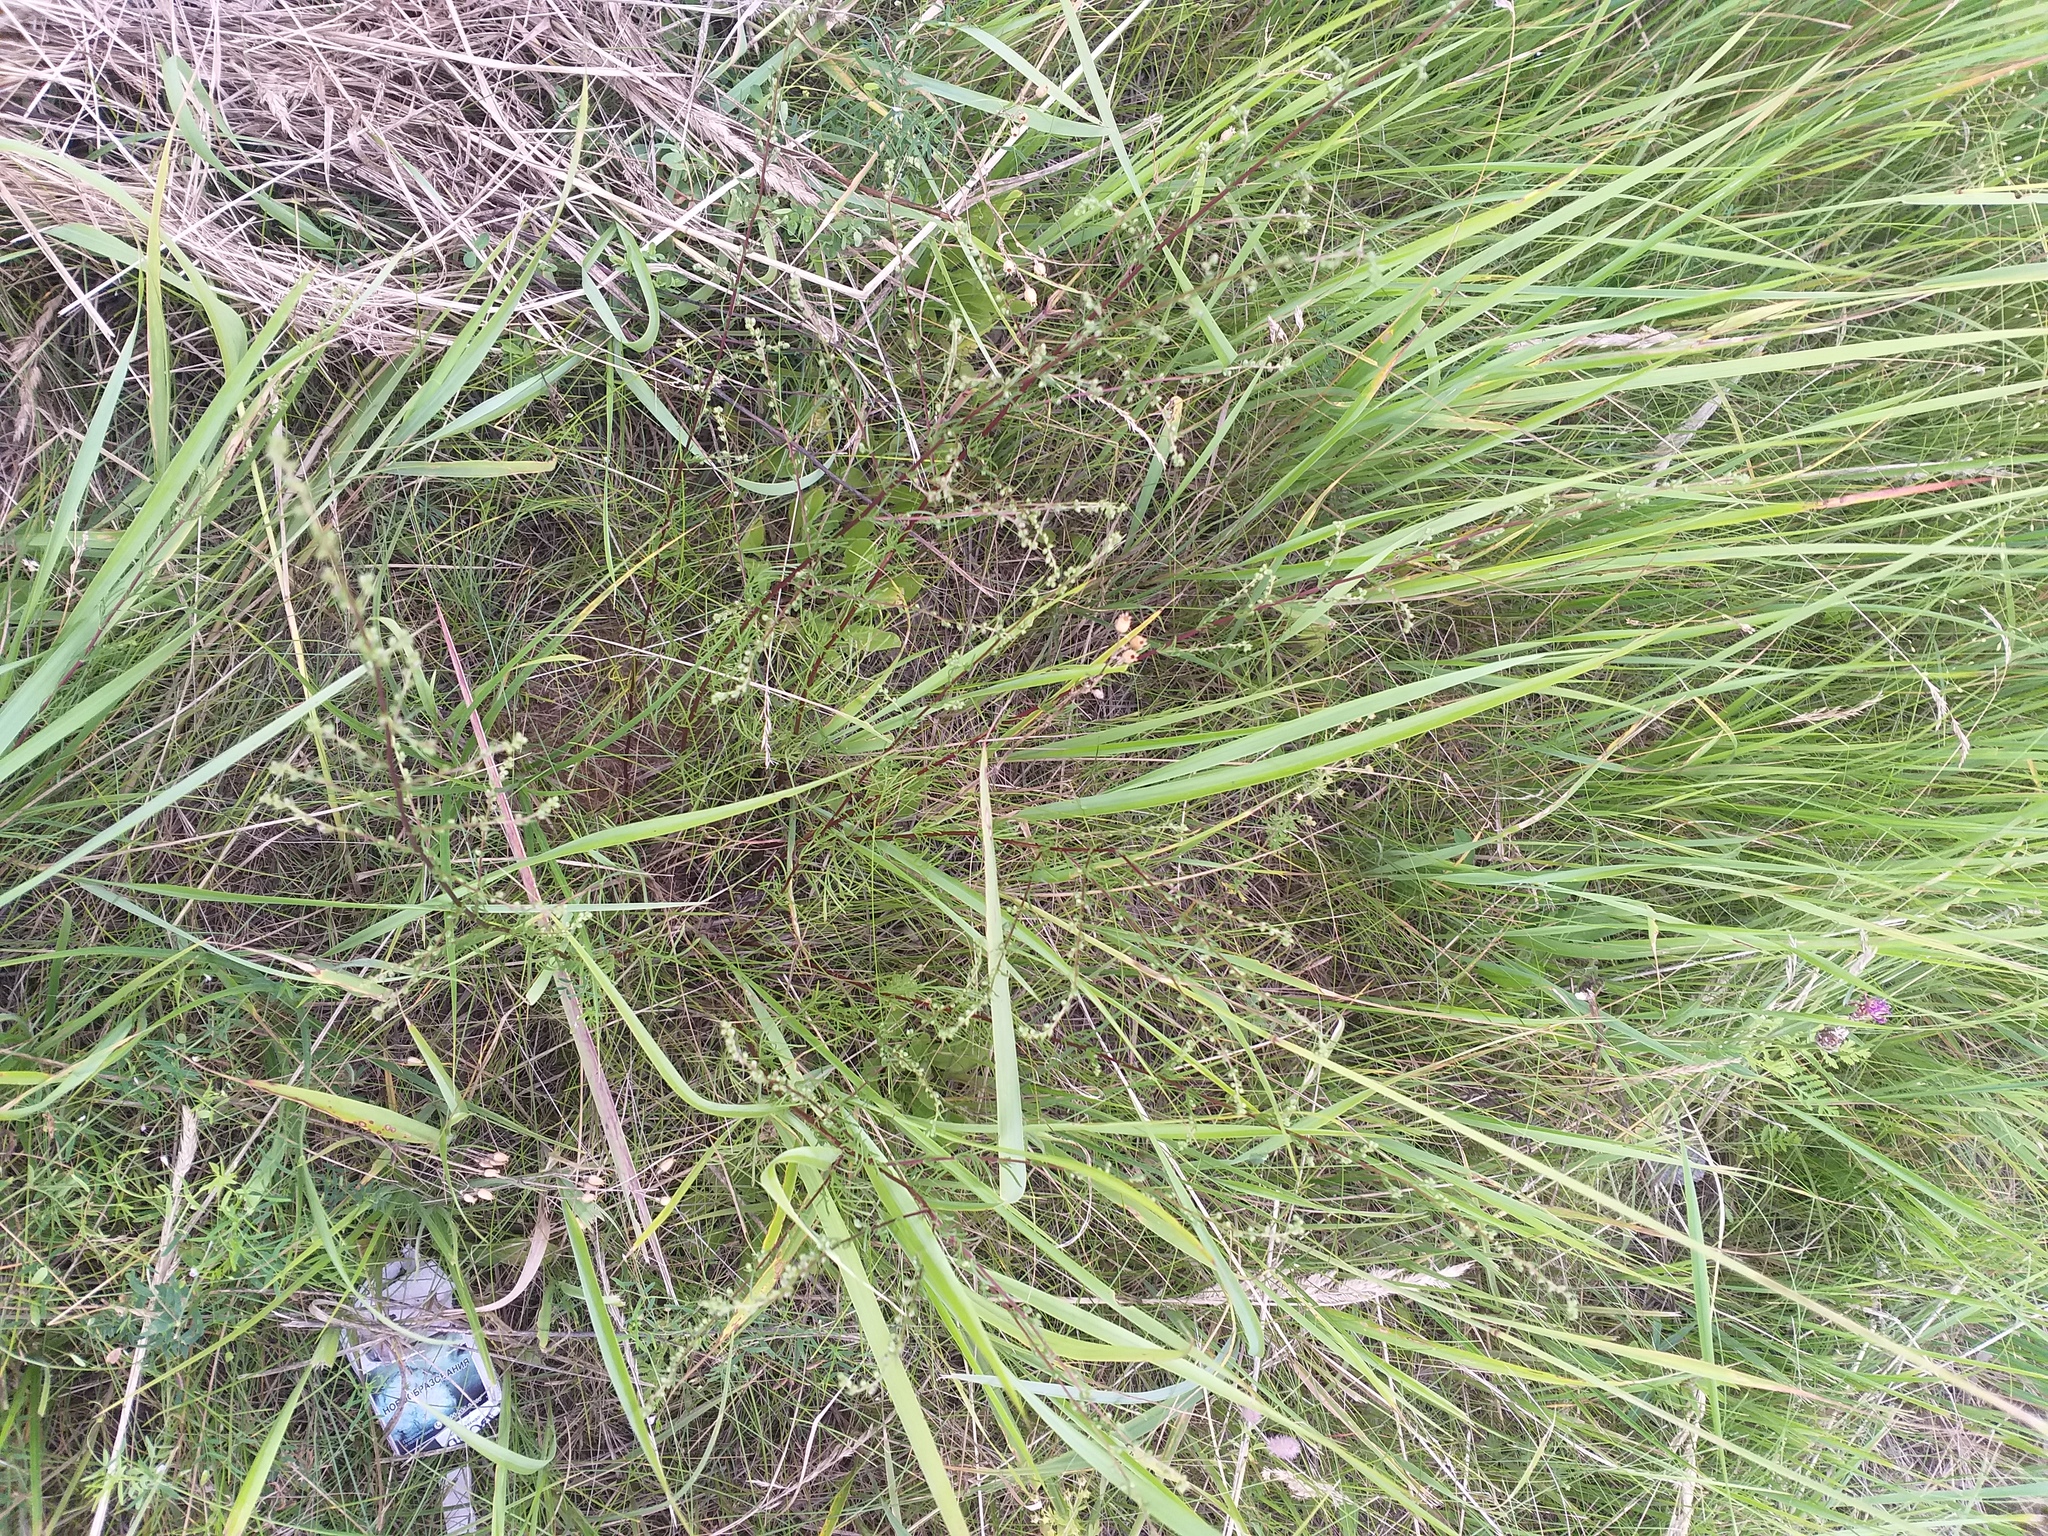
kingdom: Plantae
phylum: Tracheophyta
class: Magnoliopsida
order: Asterales
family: Asteraceae
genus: Artemisia
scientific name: Artemisia campestris
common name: Field wormwood
